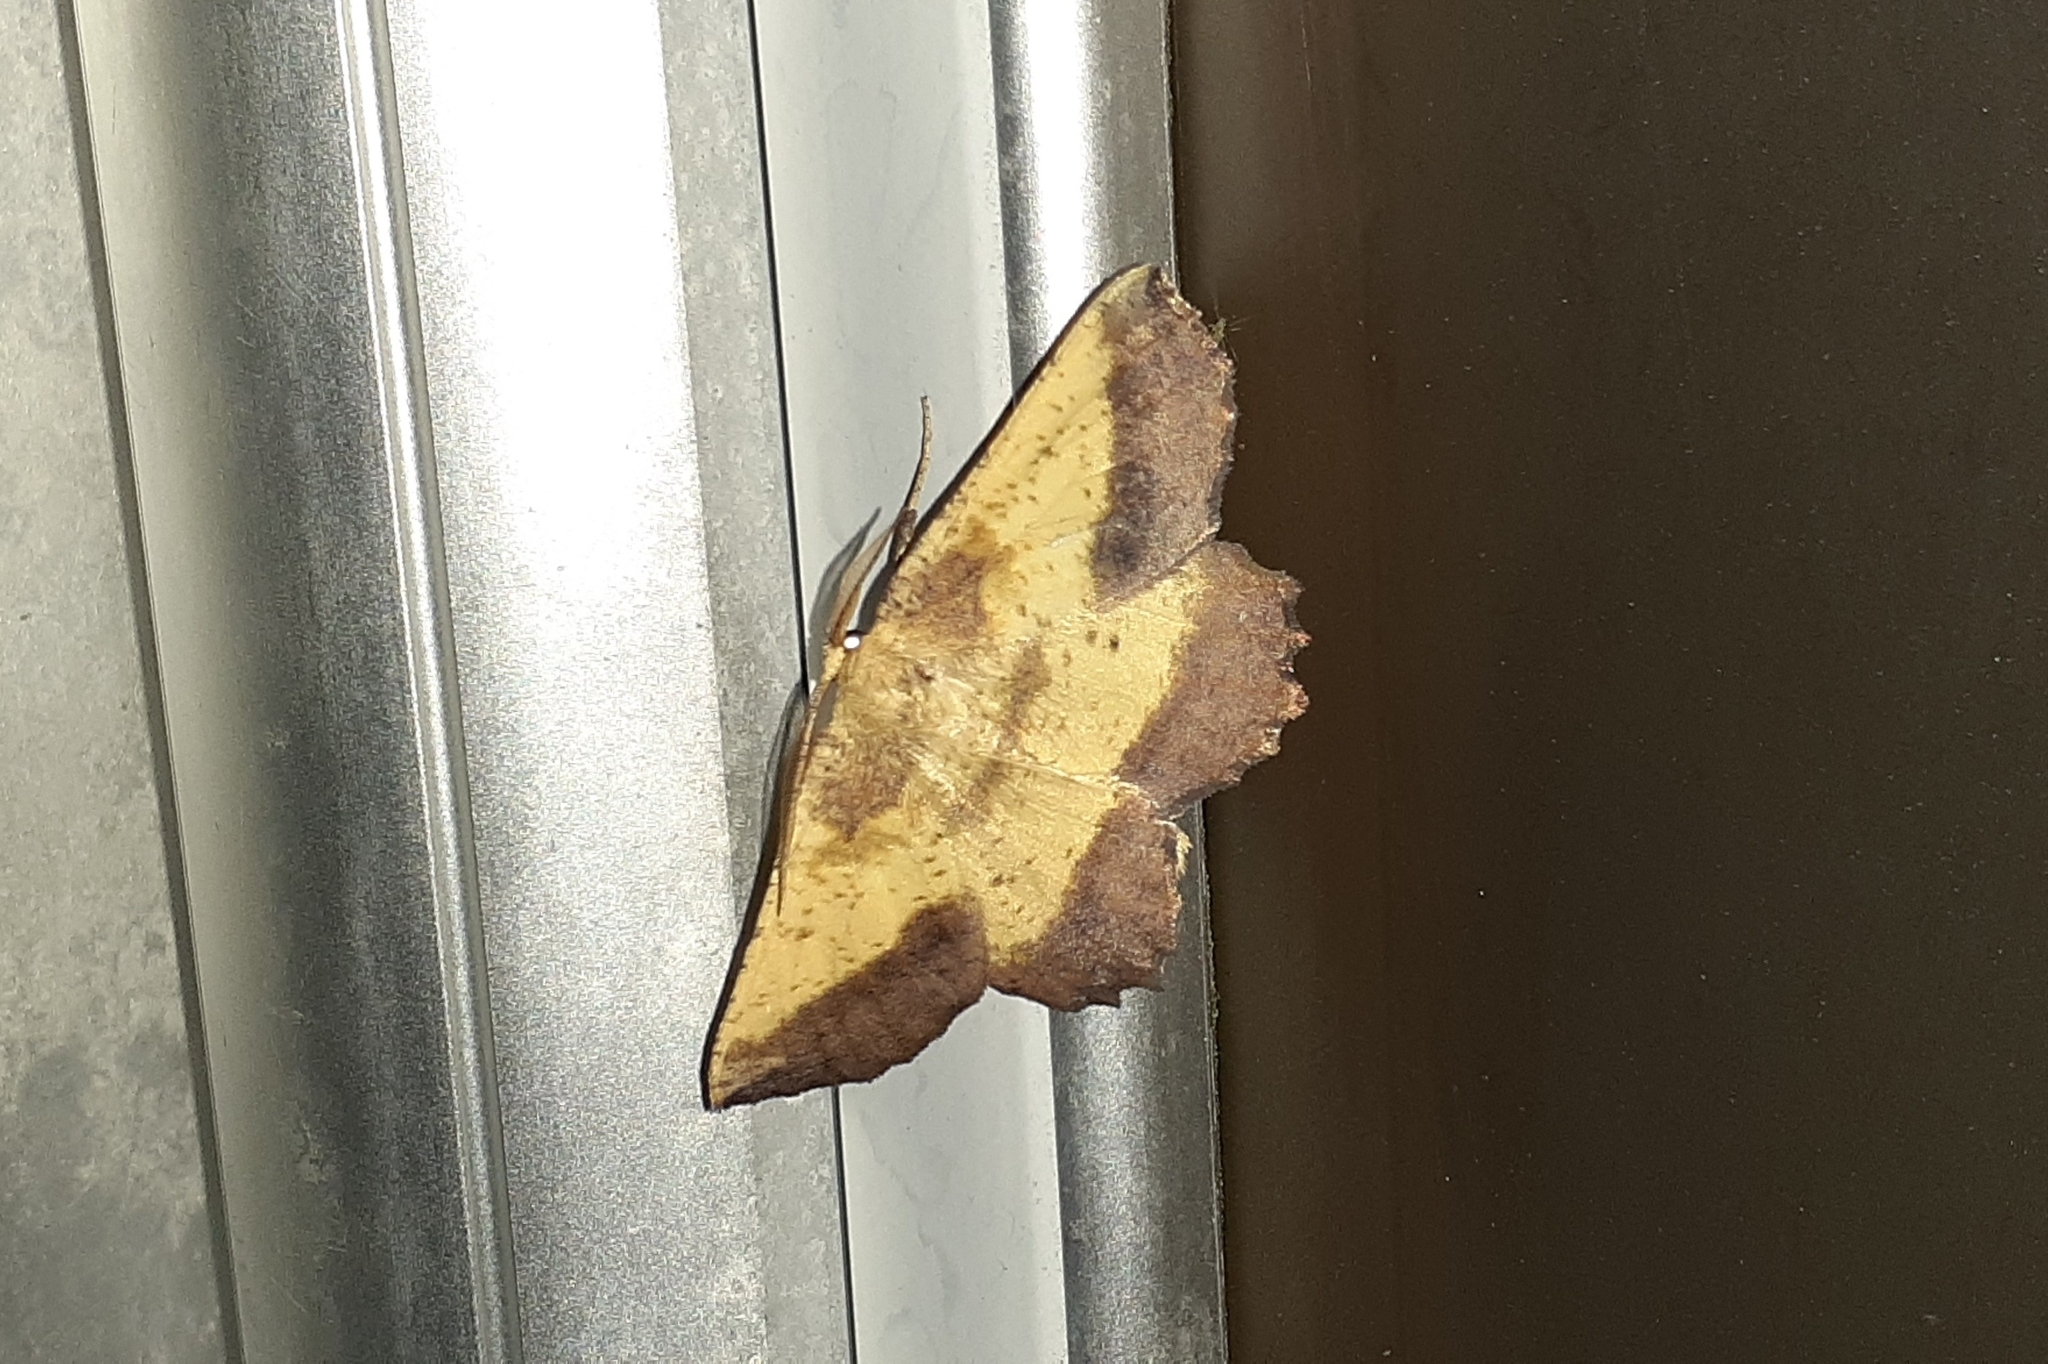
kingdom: Animalia
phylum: Arthropoda
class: Insecta
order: Lepidoptera
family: Geometridae
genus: Euchlaena
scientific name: Euchlaena serrata
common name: Saw wing
